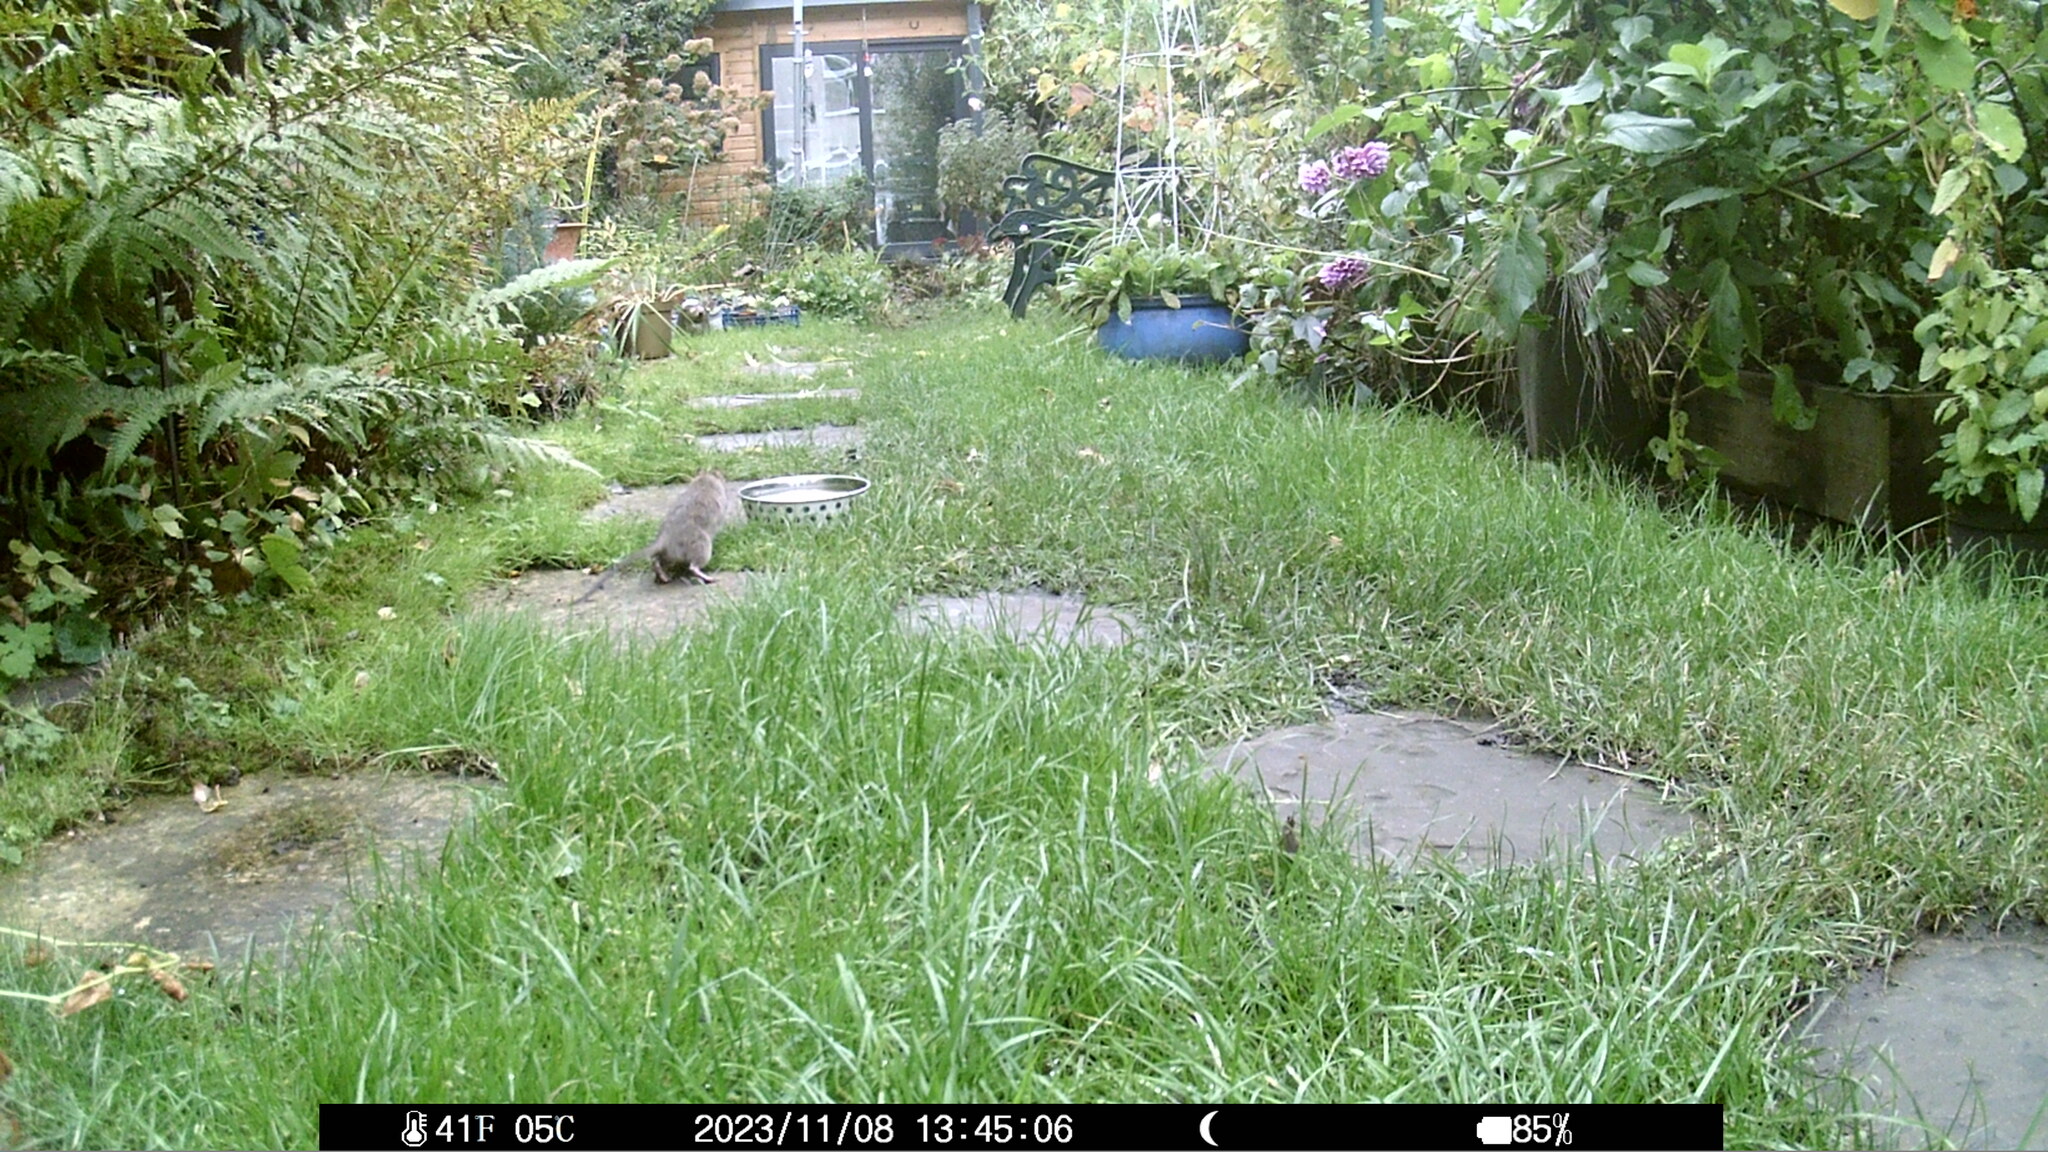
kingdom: Animalia
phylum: Chordata
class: Mammalia
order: Rodentia
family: Muridae
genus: Rattus
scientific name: Rattus norvegicus
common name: Brown rat
